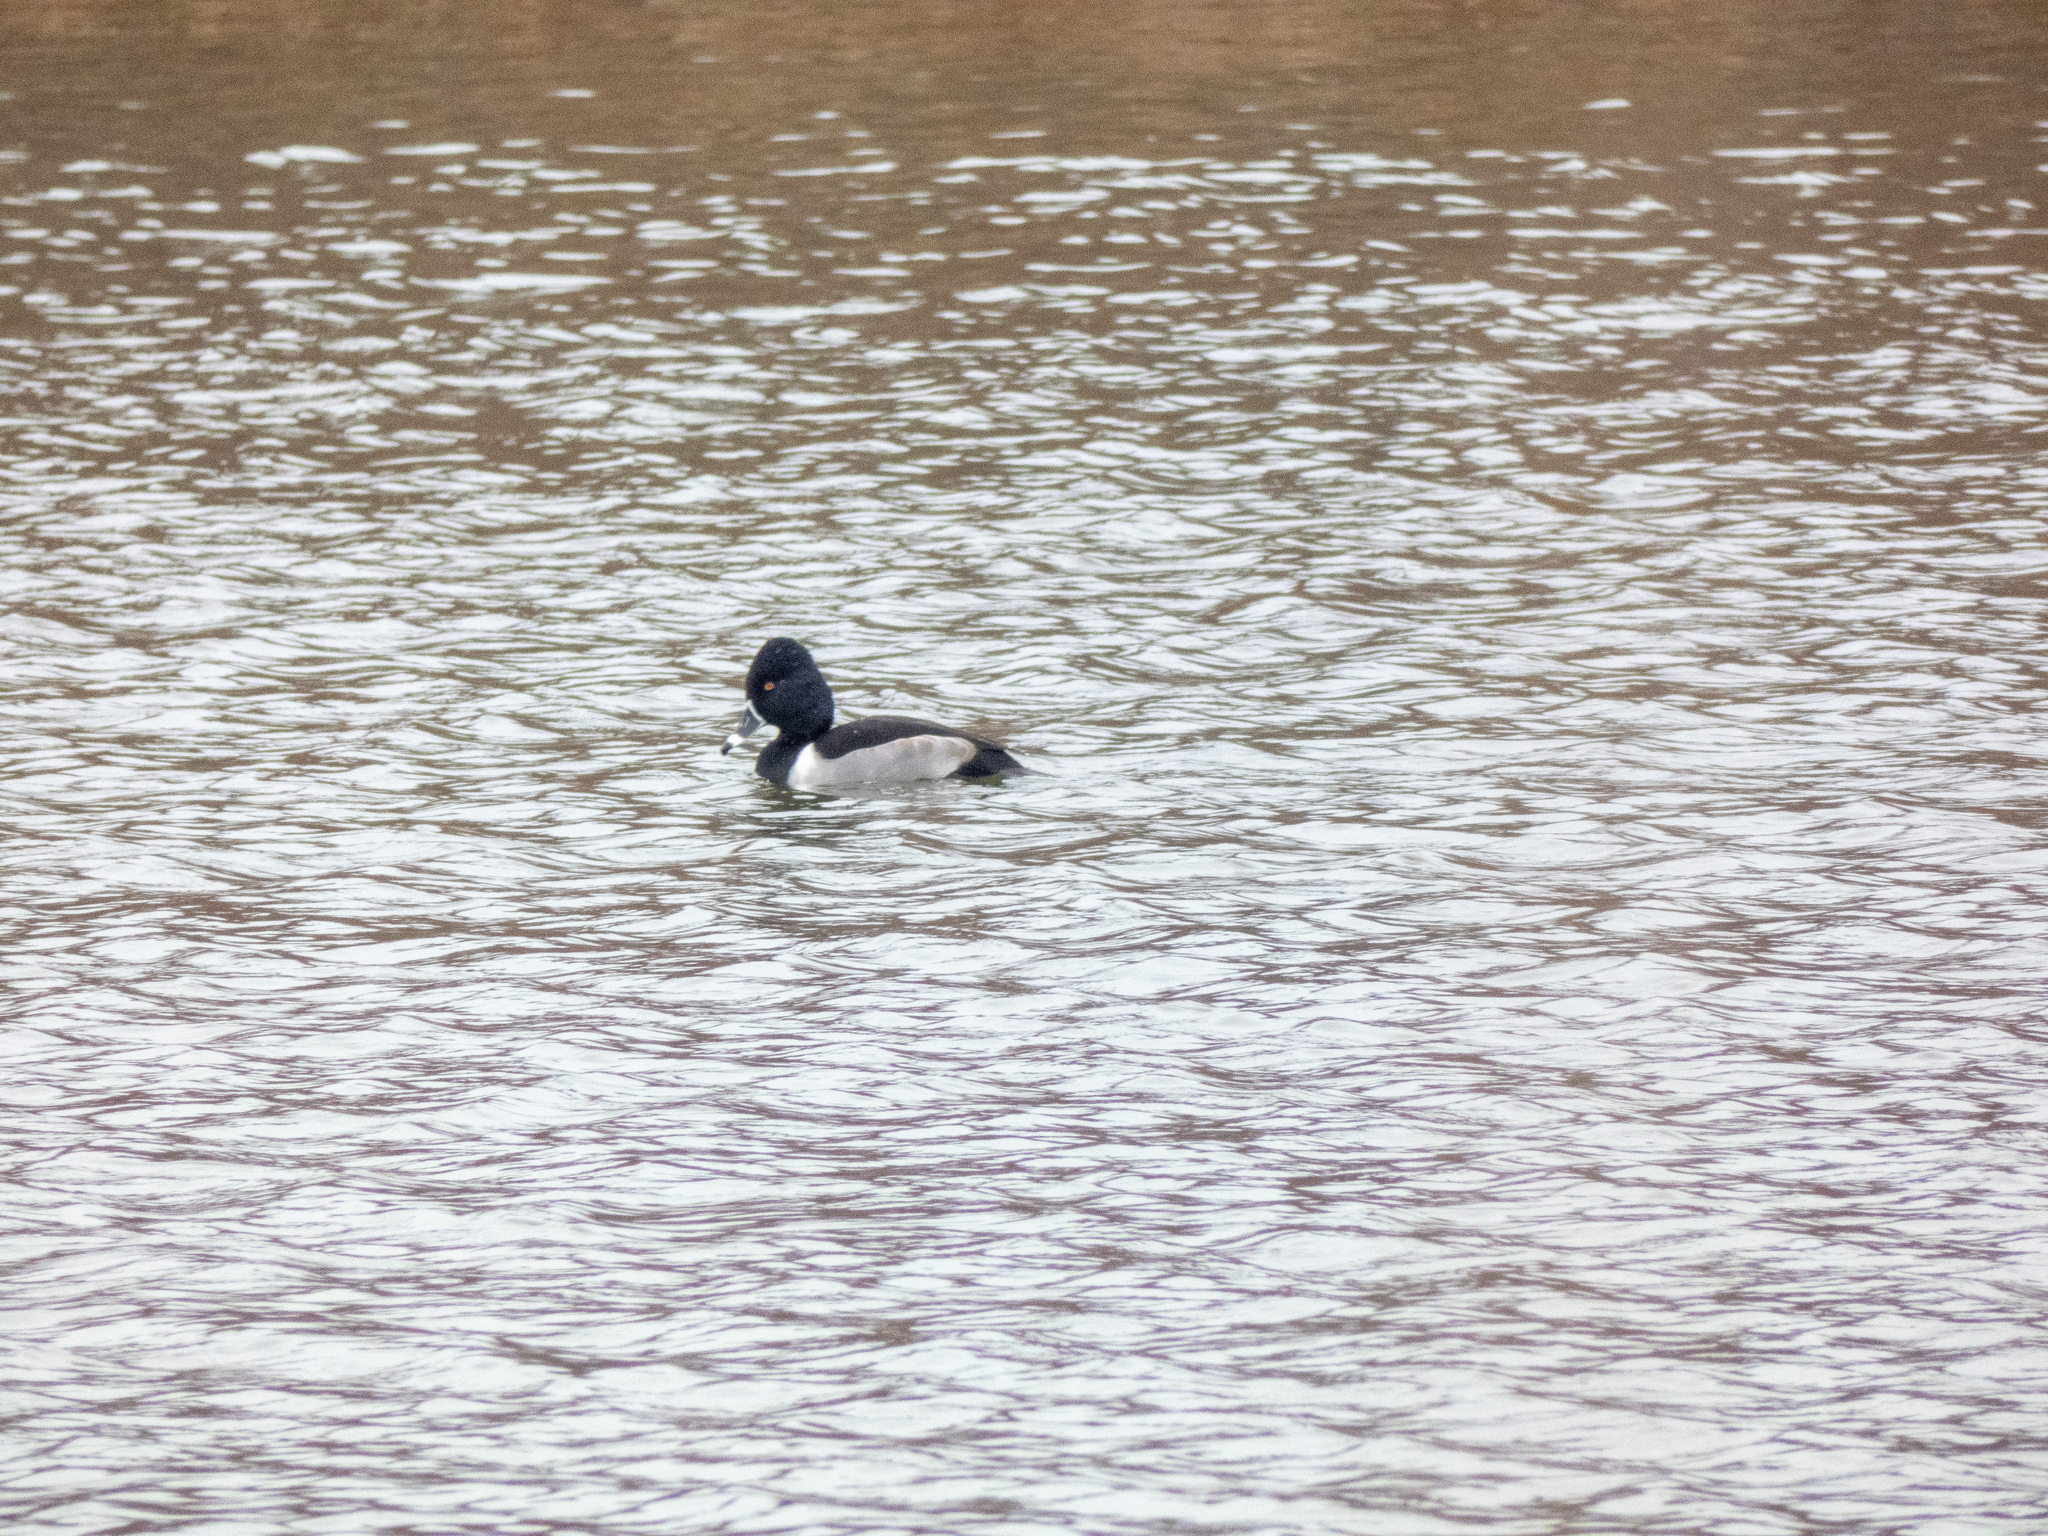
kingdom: Animalia
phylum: Chordata
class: Aves
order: Anseriformes
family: Anatidae
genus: Aythya
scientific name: Aythya collaris
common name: Ring-necked duck
